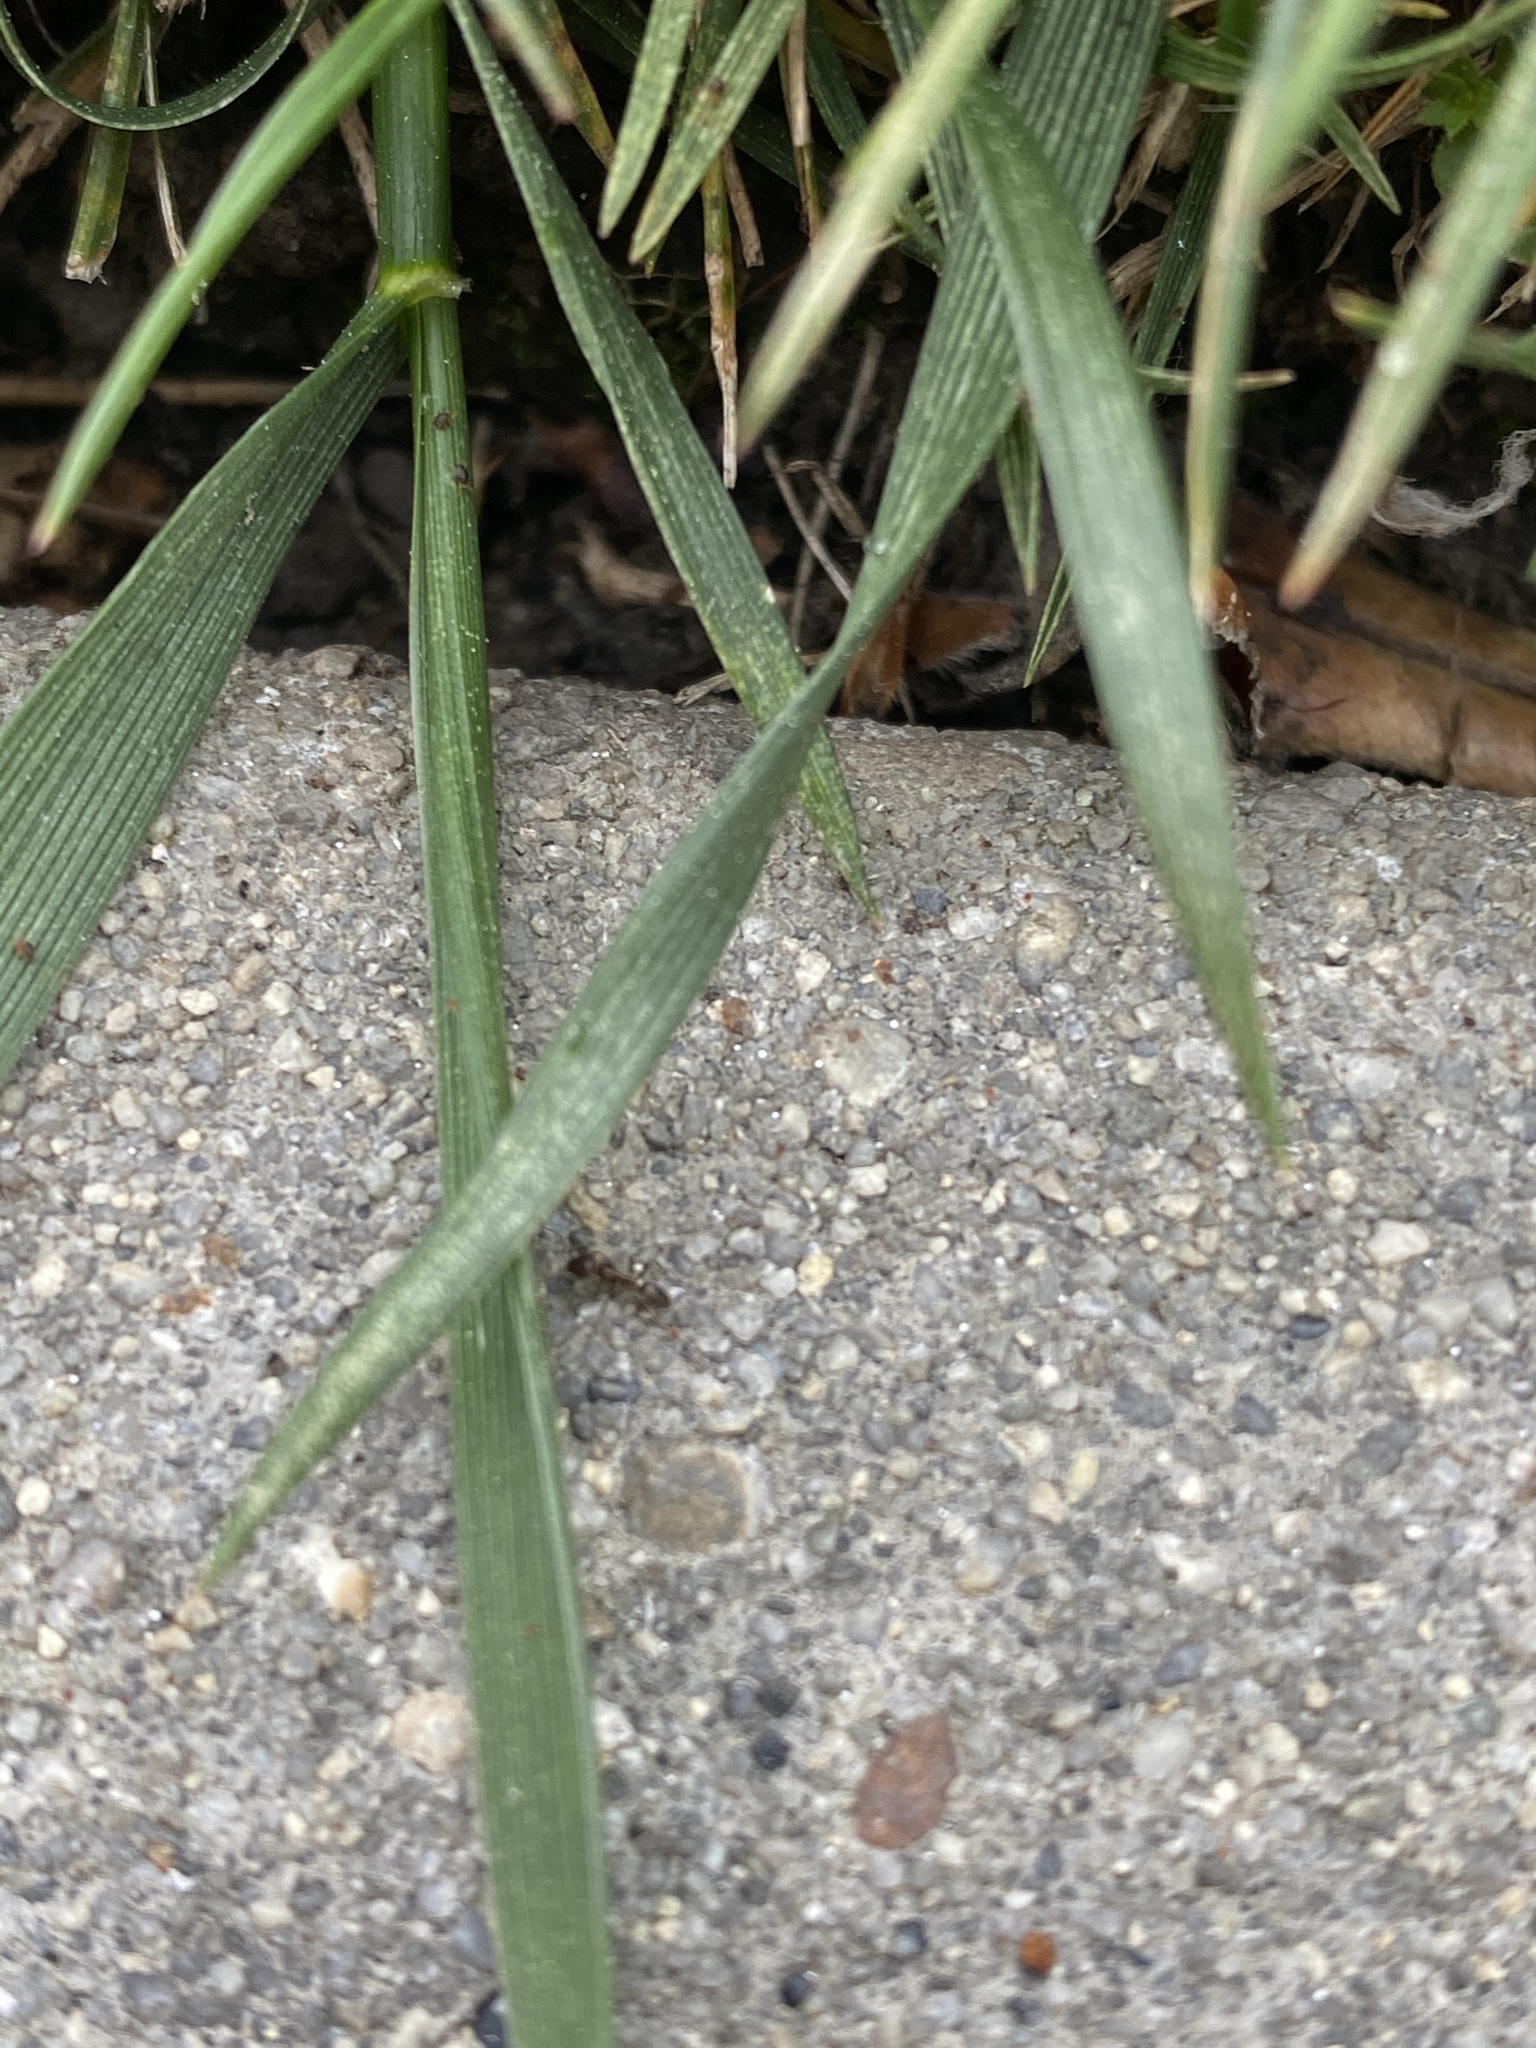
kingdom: Animalia
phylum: Arthropoda
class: Insecta
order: Hymenoptera
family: Formicidae
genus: Linepithema
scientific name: Linepithema humile
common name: Argentine ant
